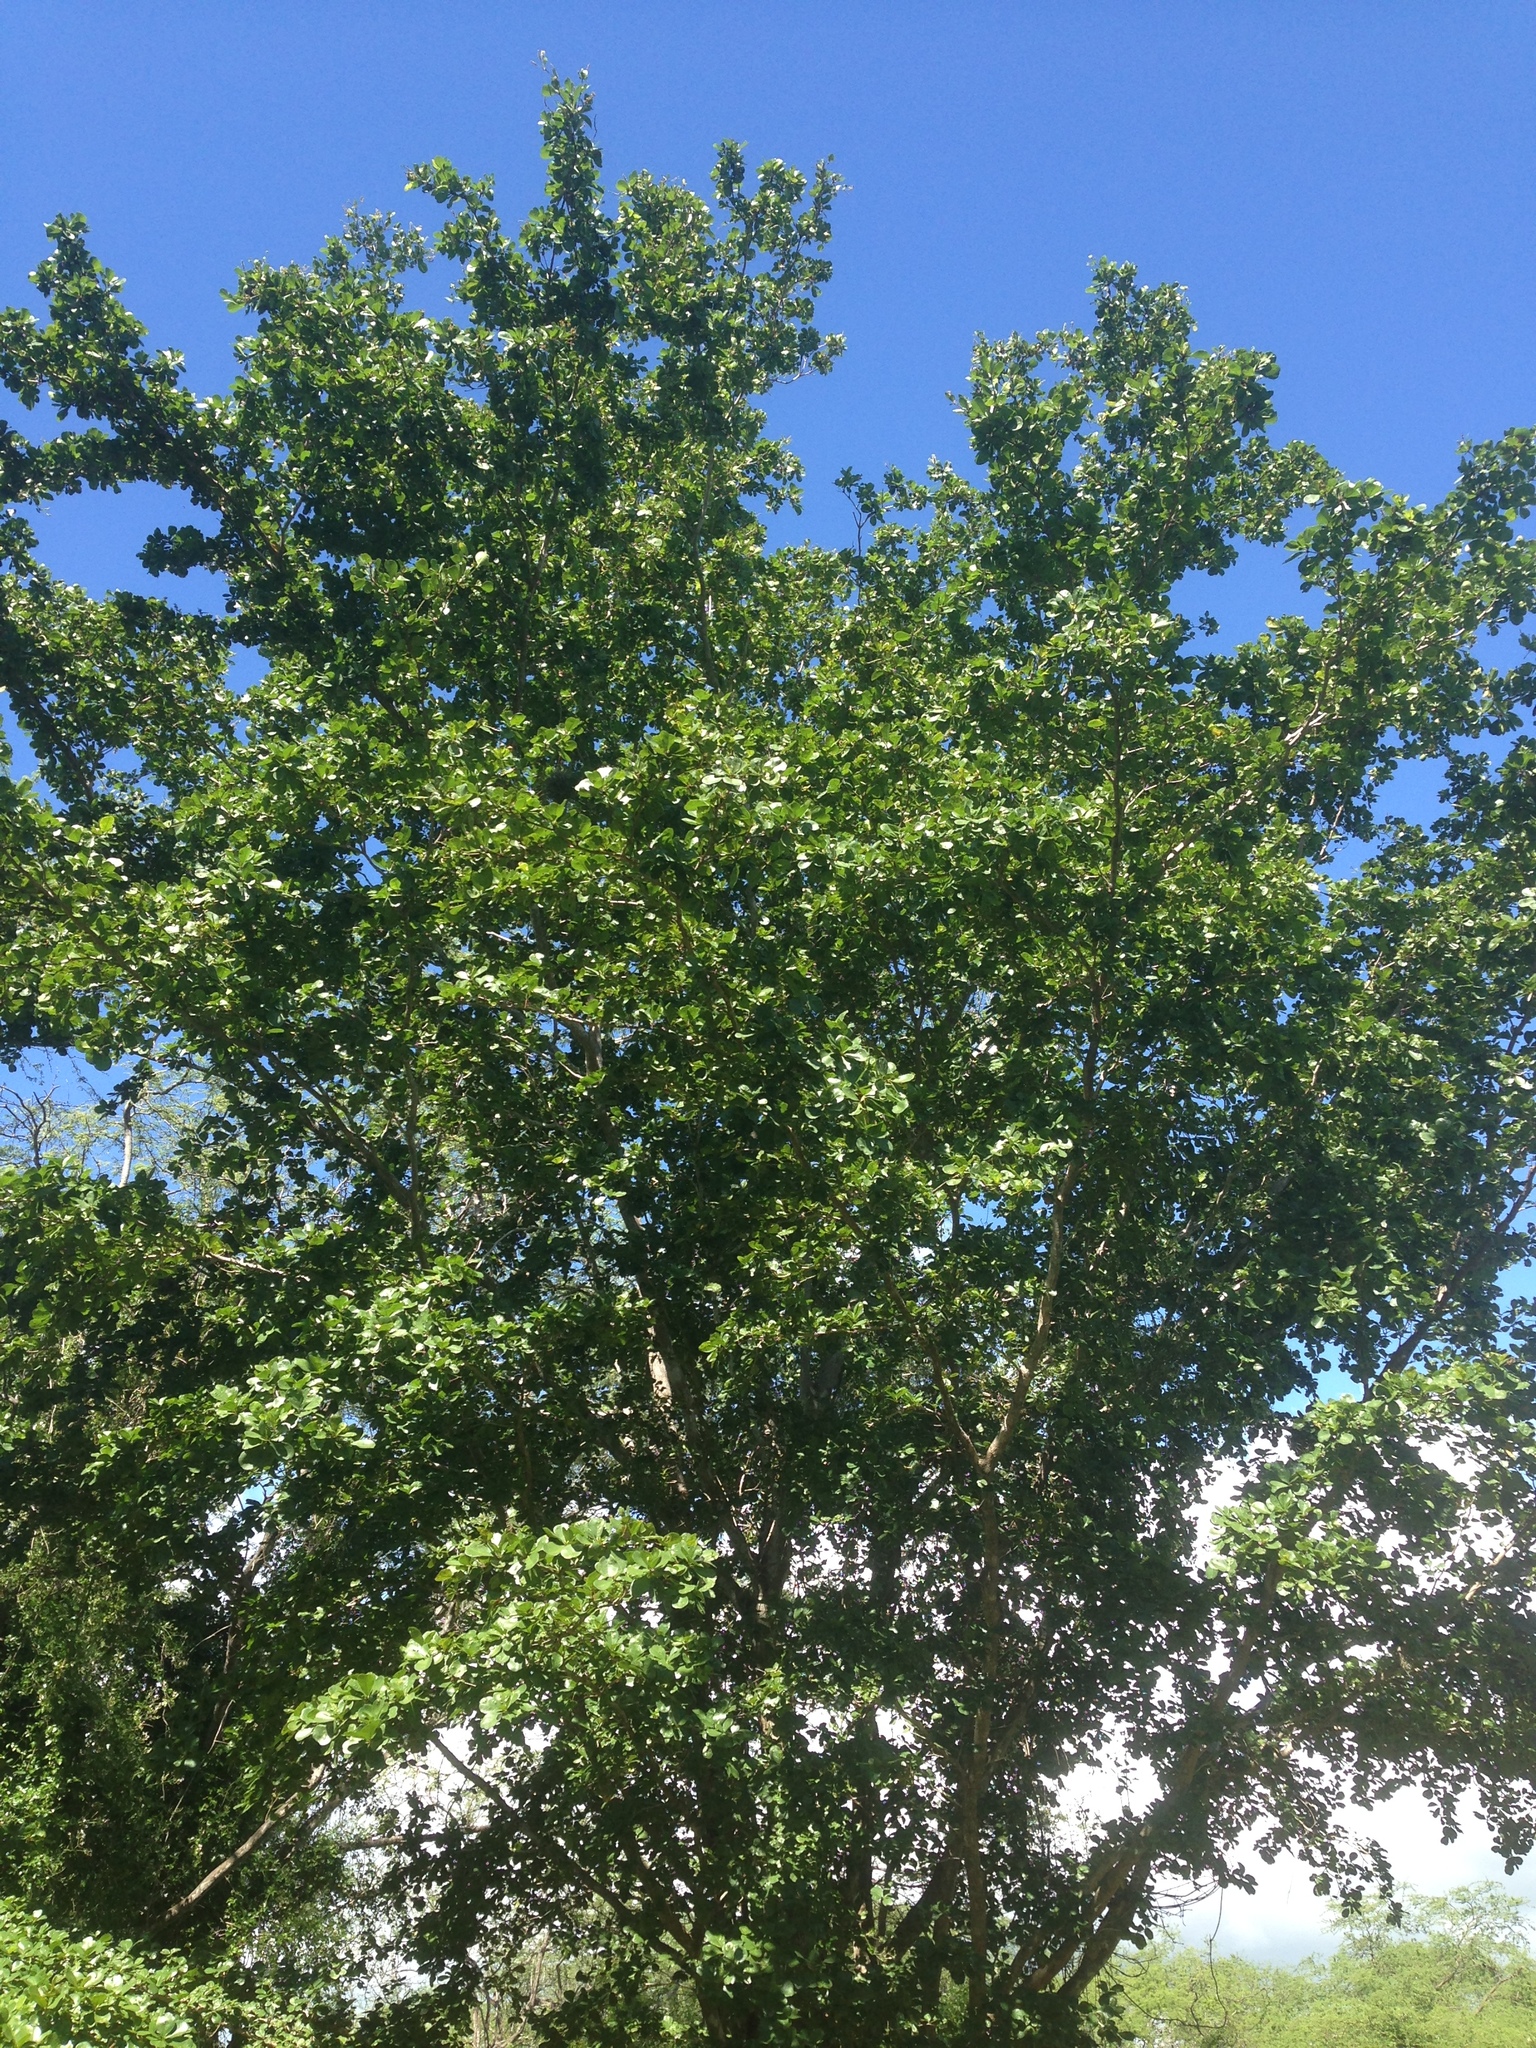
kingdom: Plantae
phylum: Tracheophyta
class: Magnoliopsida
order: Myrtales
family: Combretaceae
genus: Terminalia
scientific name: Terminalia buceras
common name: Black-olive
